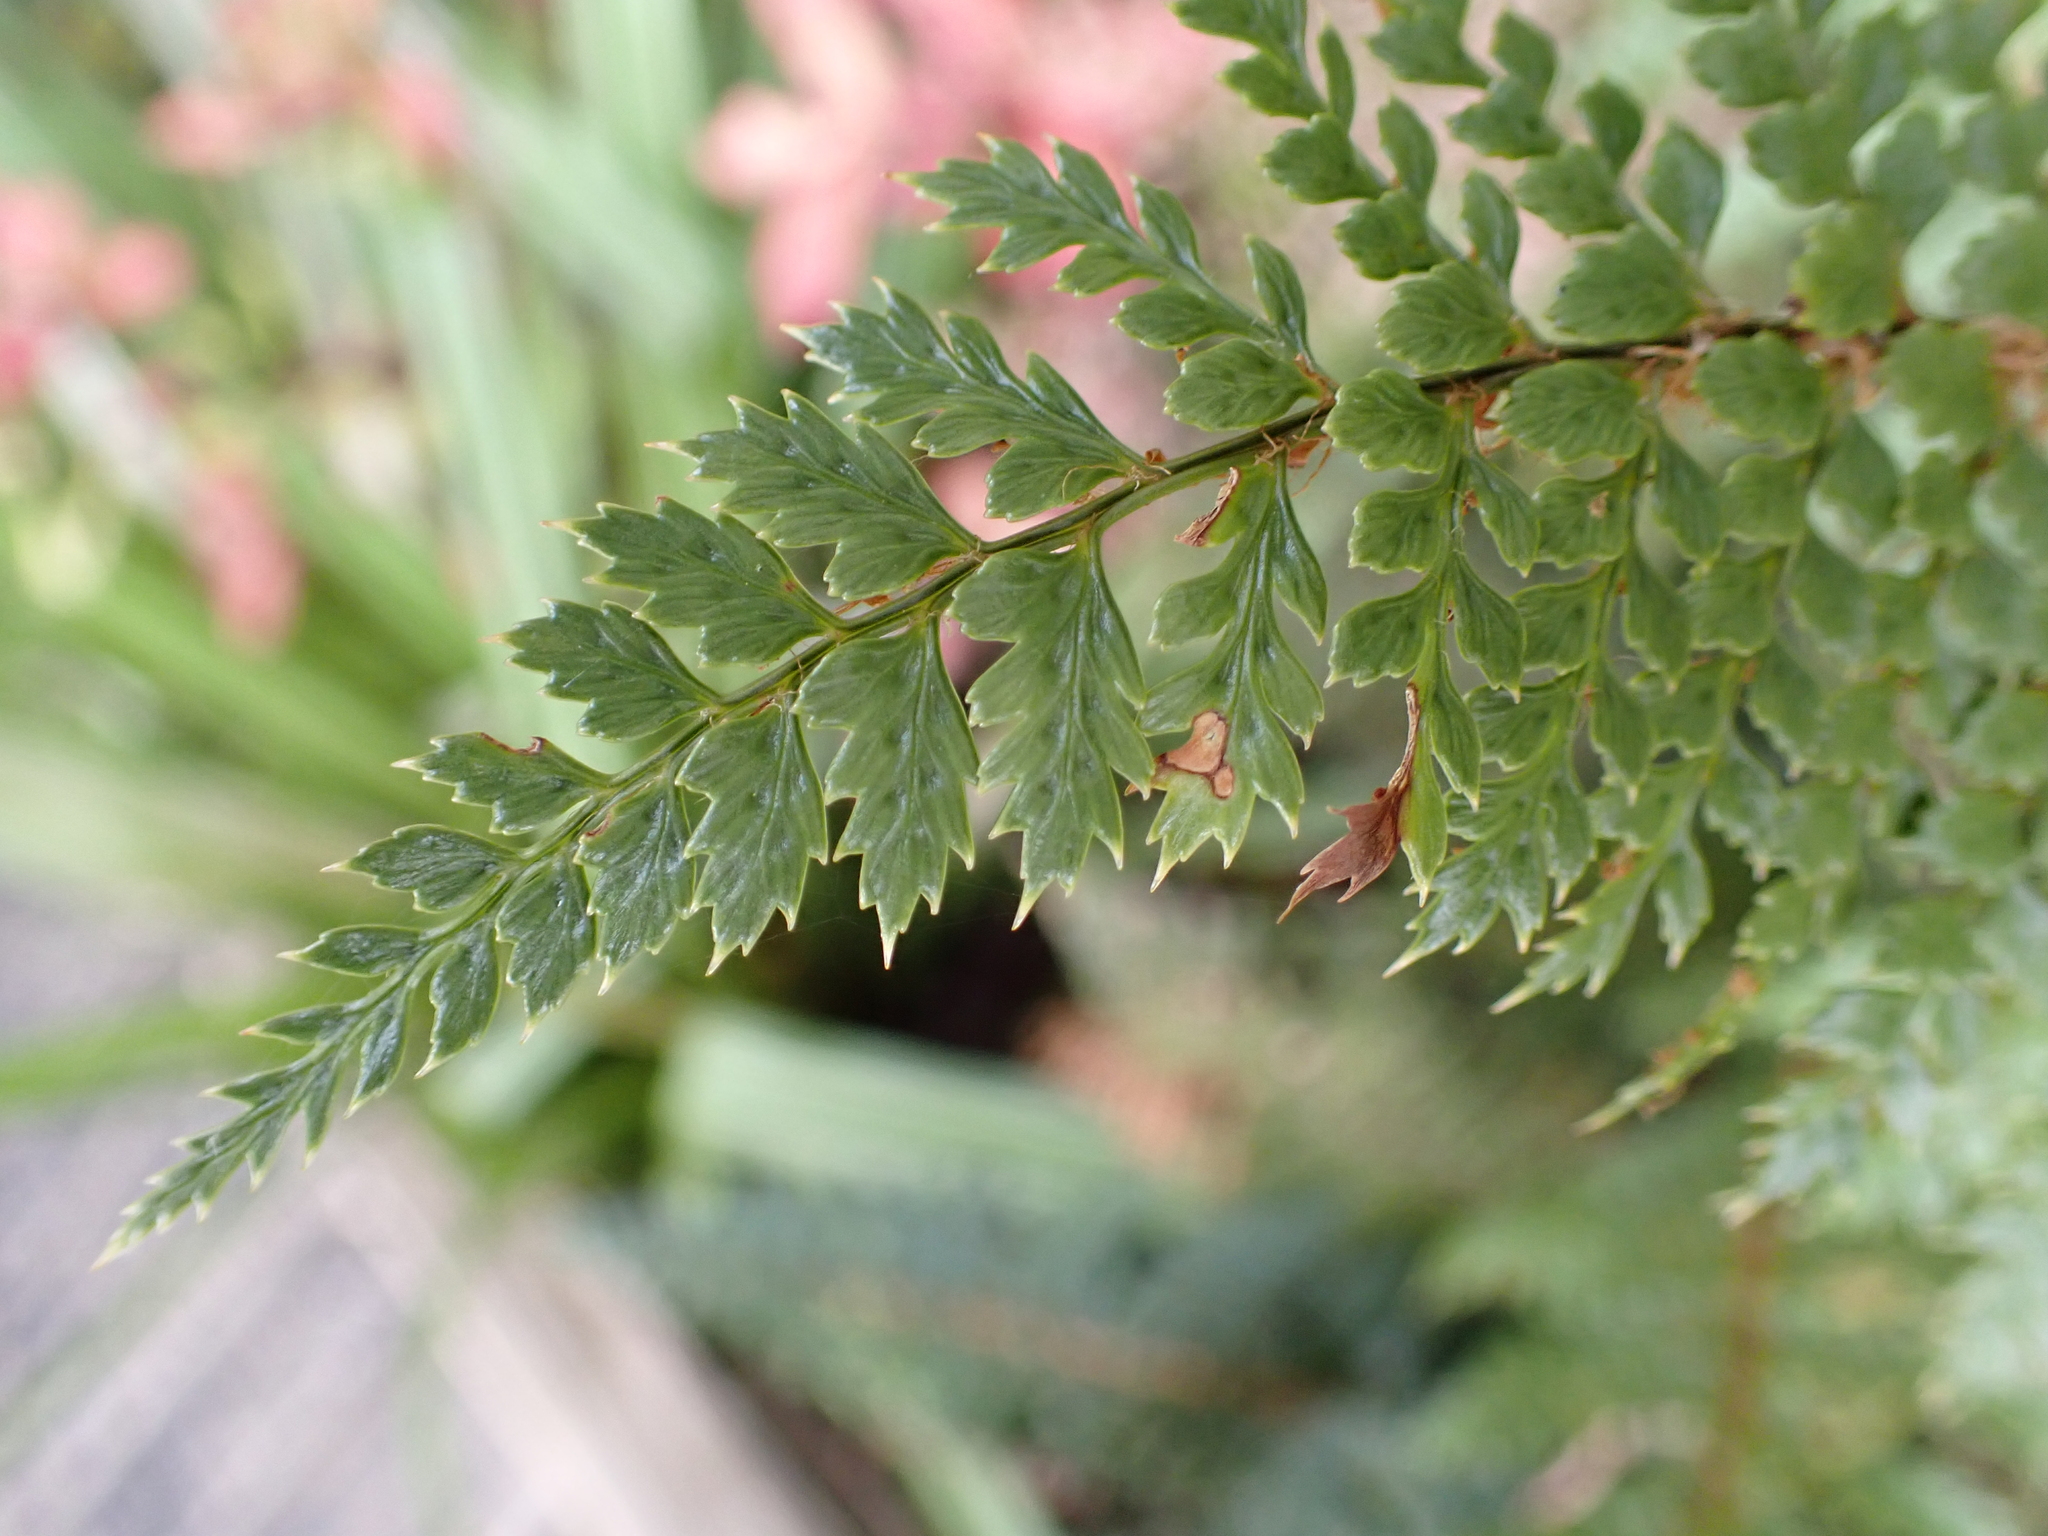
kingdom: Plantae
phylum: Tracheophyta
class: Polypodiopsida
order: Polypodiales
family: Dryopteridaceae
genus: Polystichum
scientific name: Polystichum vestitum
